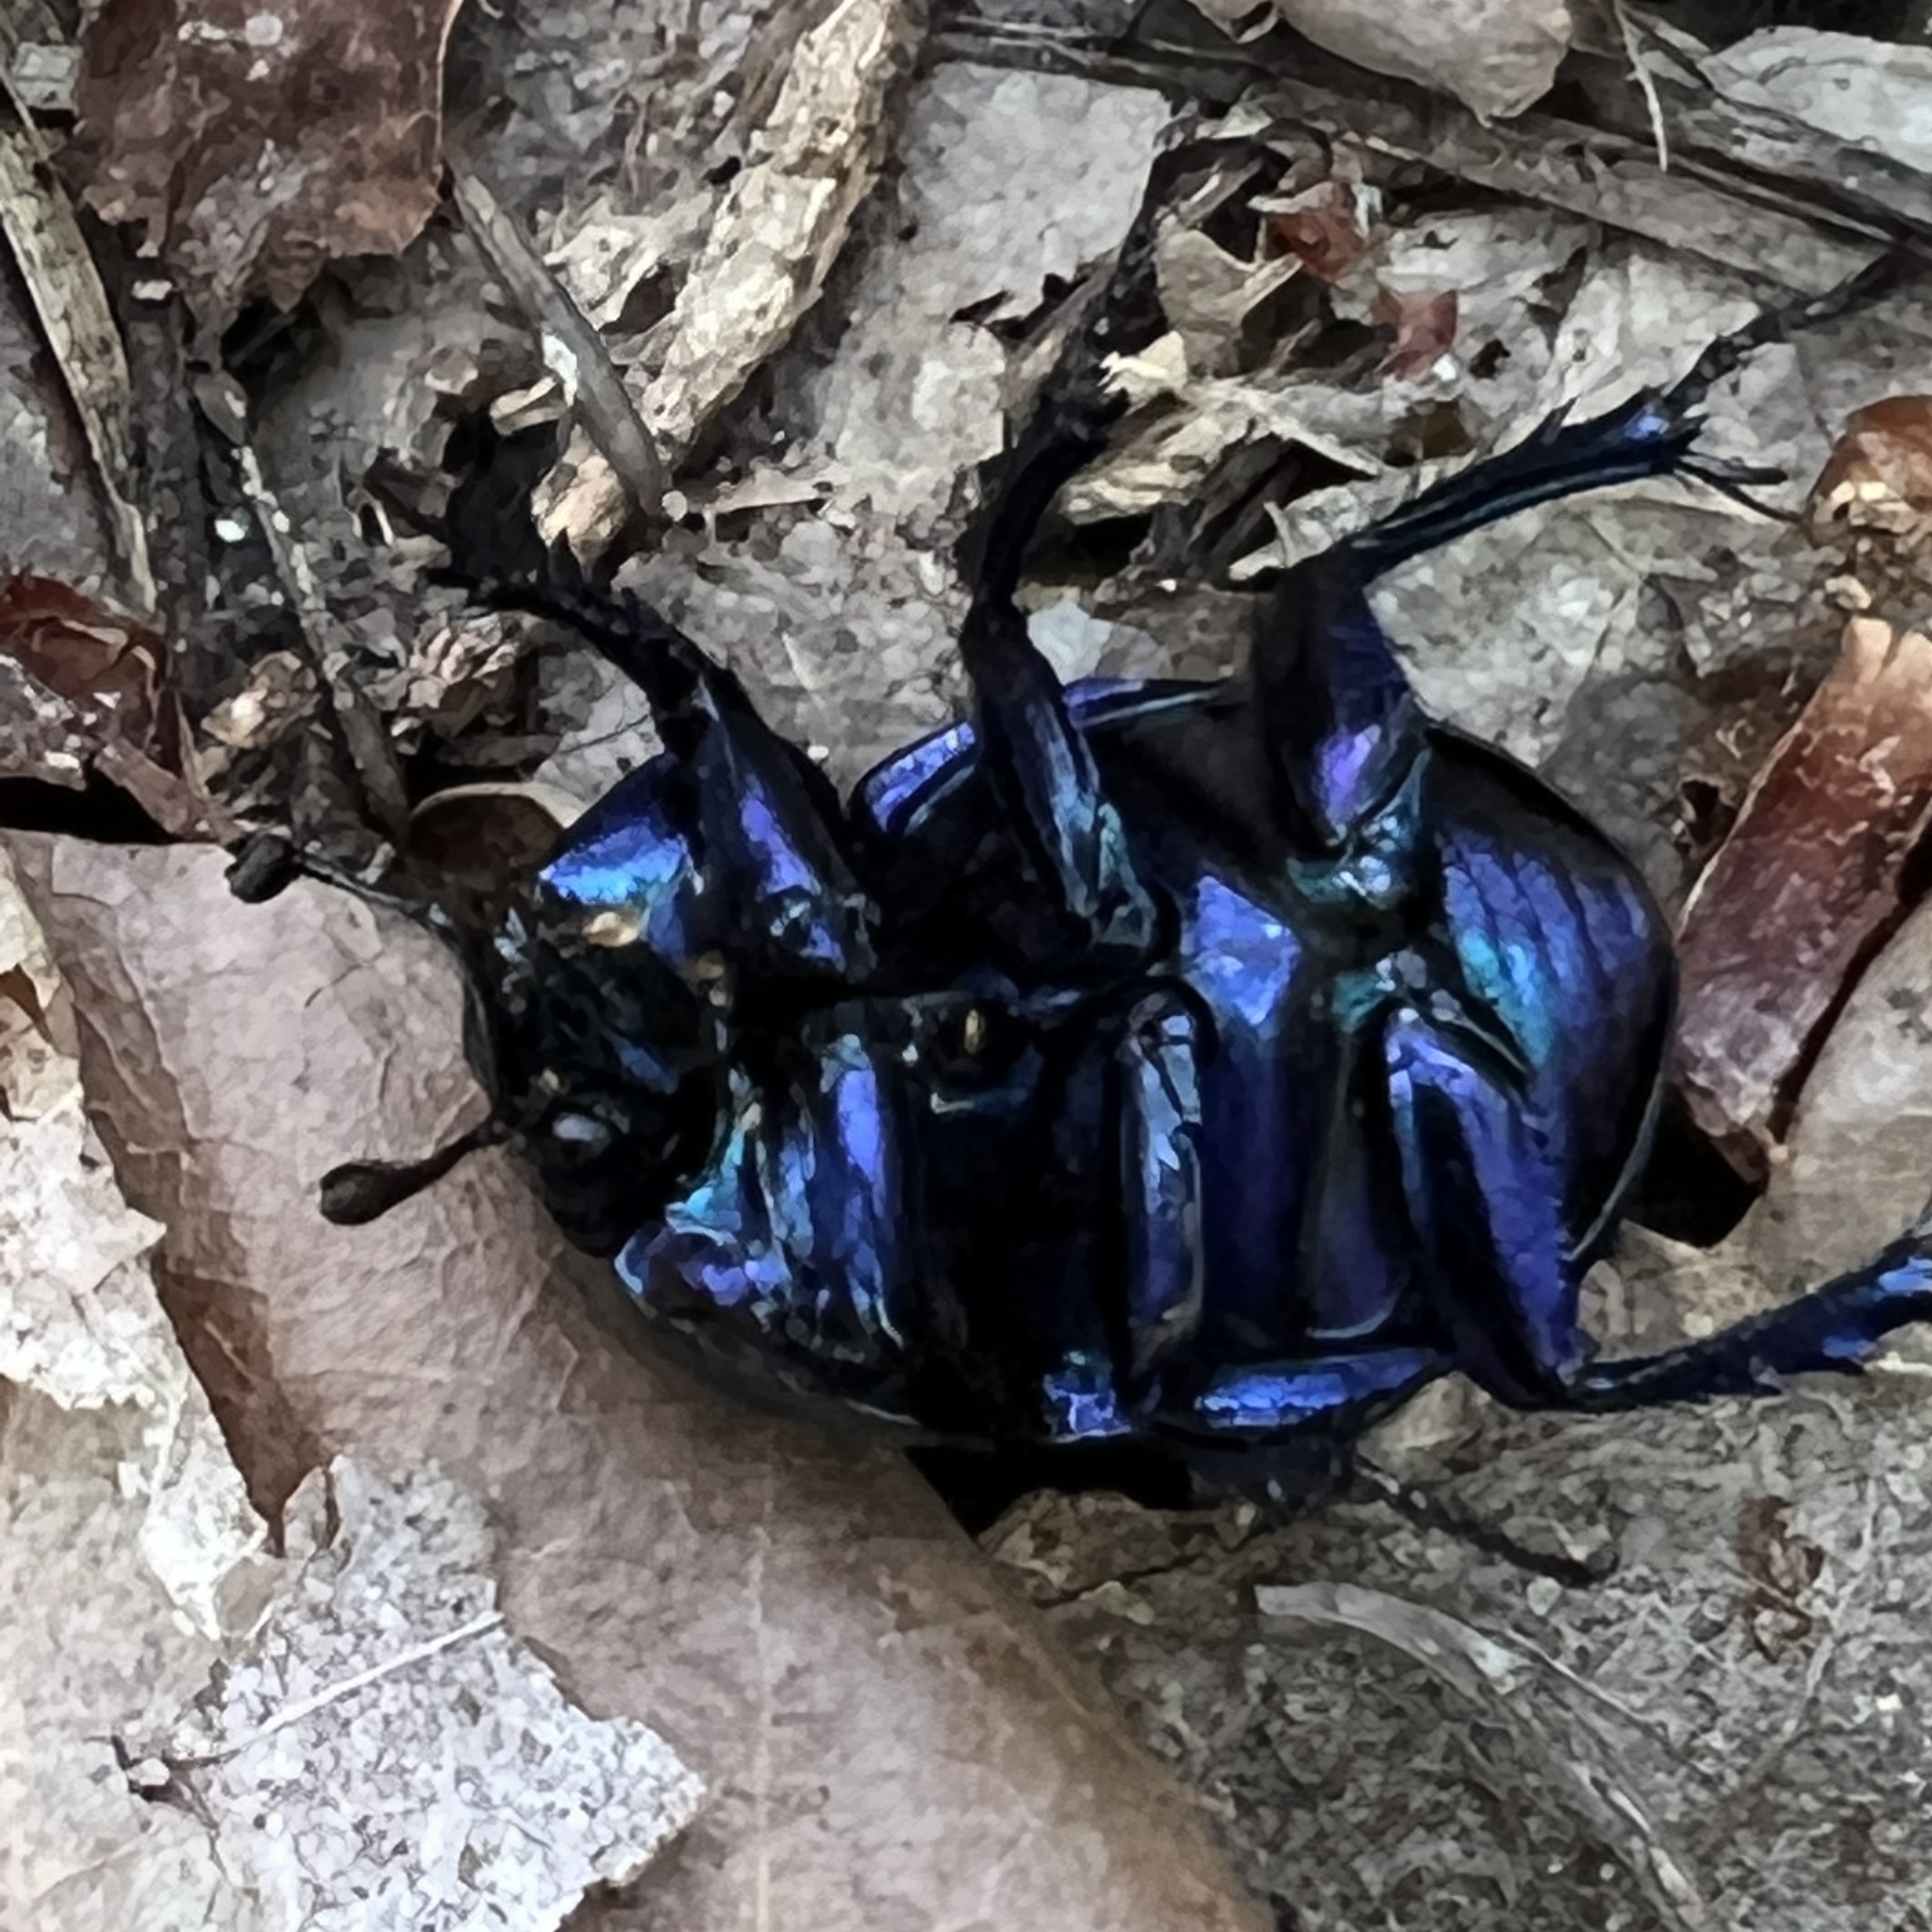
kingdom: Animalia
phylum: Arthropoda
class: Insecta
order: Coleoptera
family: Geotrupidae
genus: Anoplotrupes
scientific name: Anoplotrupes stercorosus
